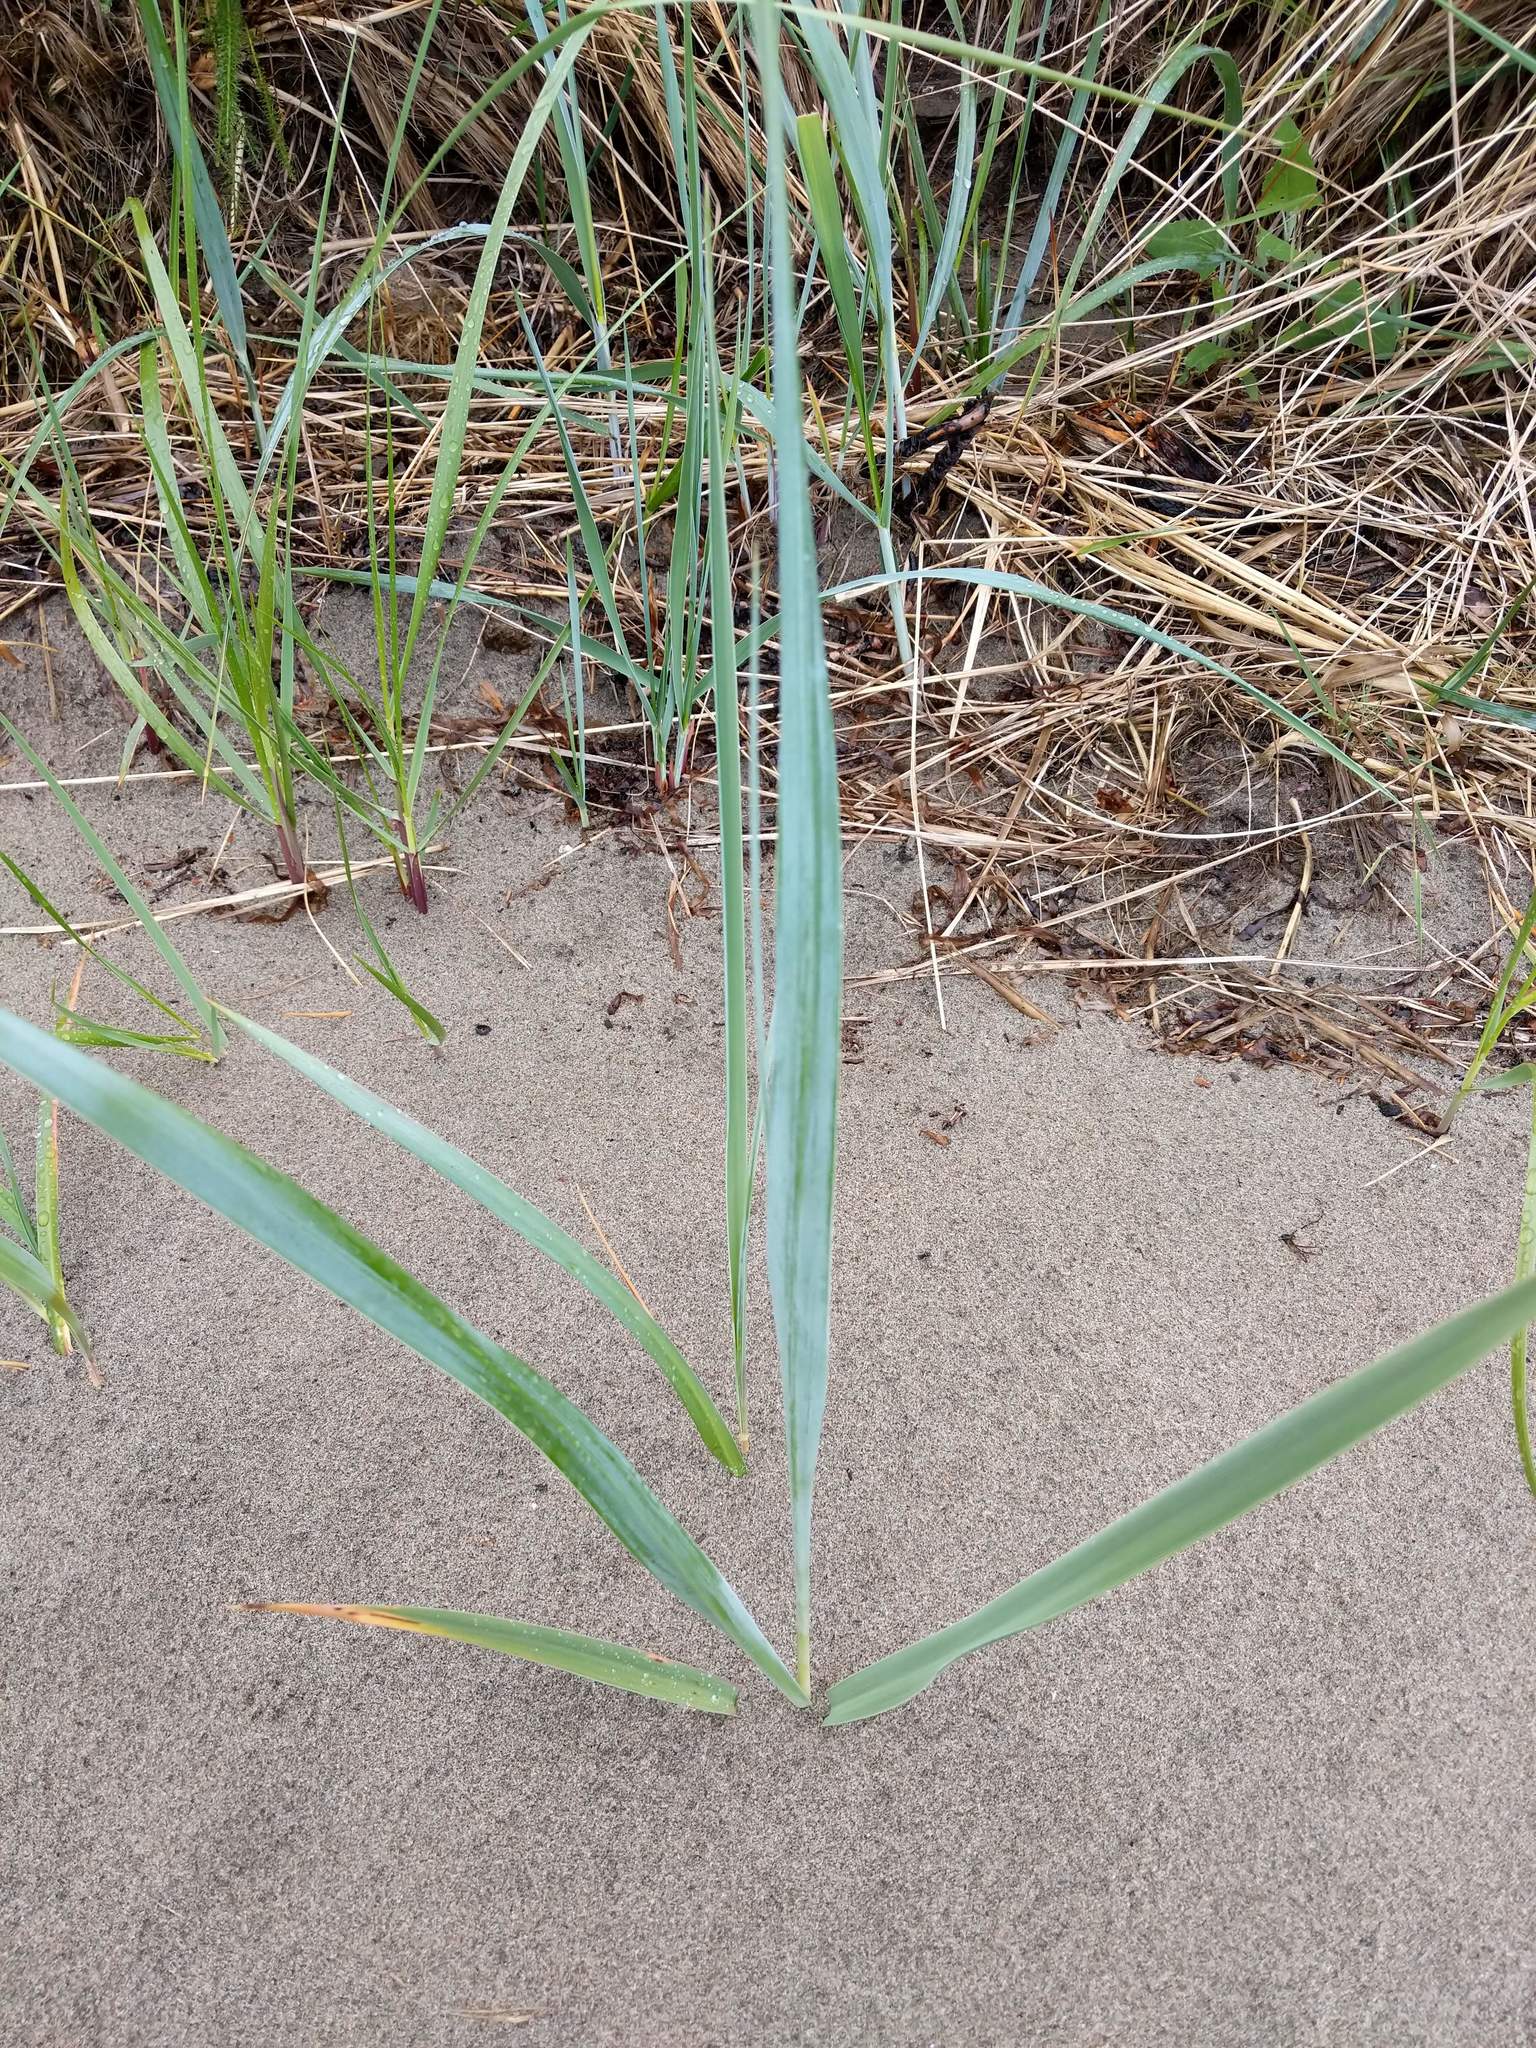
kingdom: Plantae
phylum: Tracheophyta
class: Liliopsida
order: Poales
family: Poaceae
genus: Leymus
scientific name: Leymus mollis
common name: American dune grass
